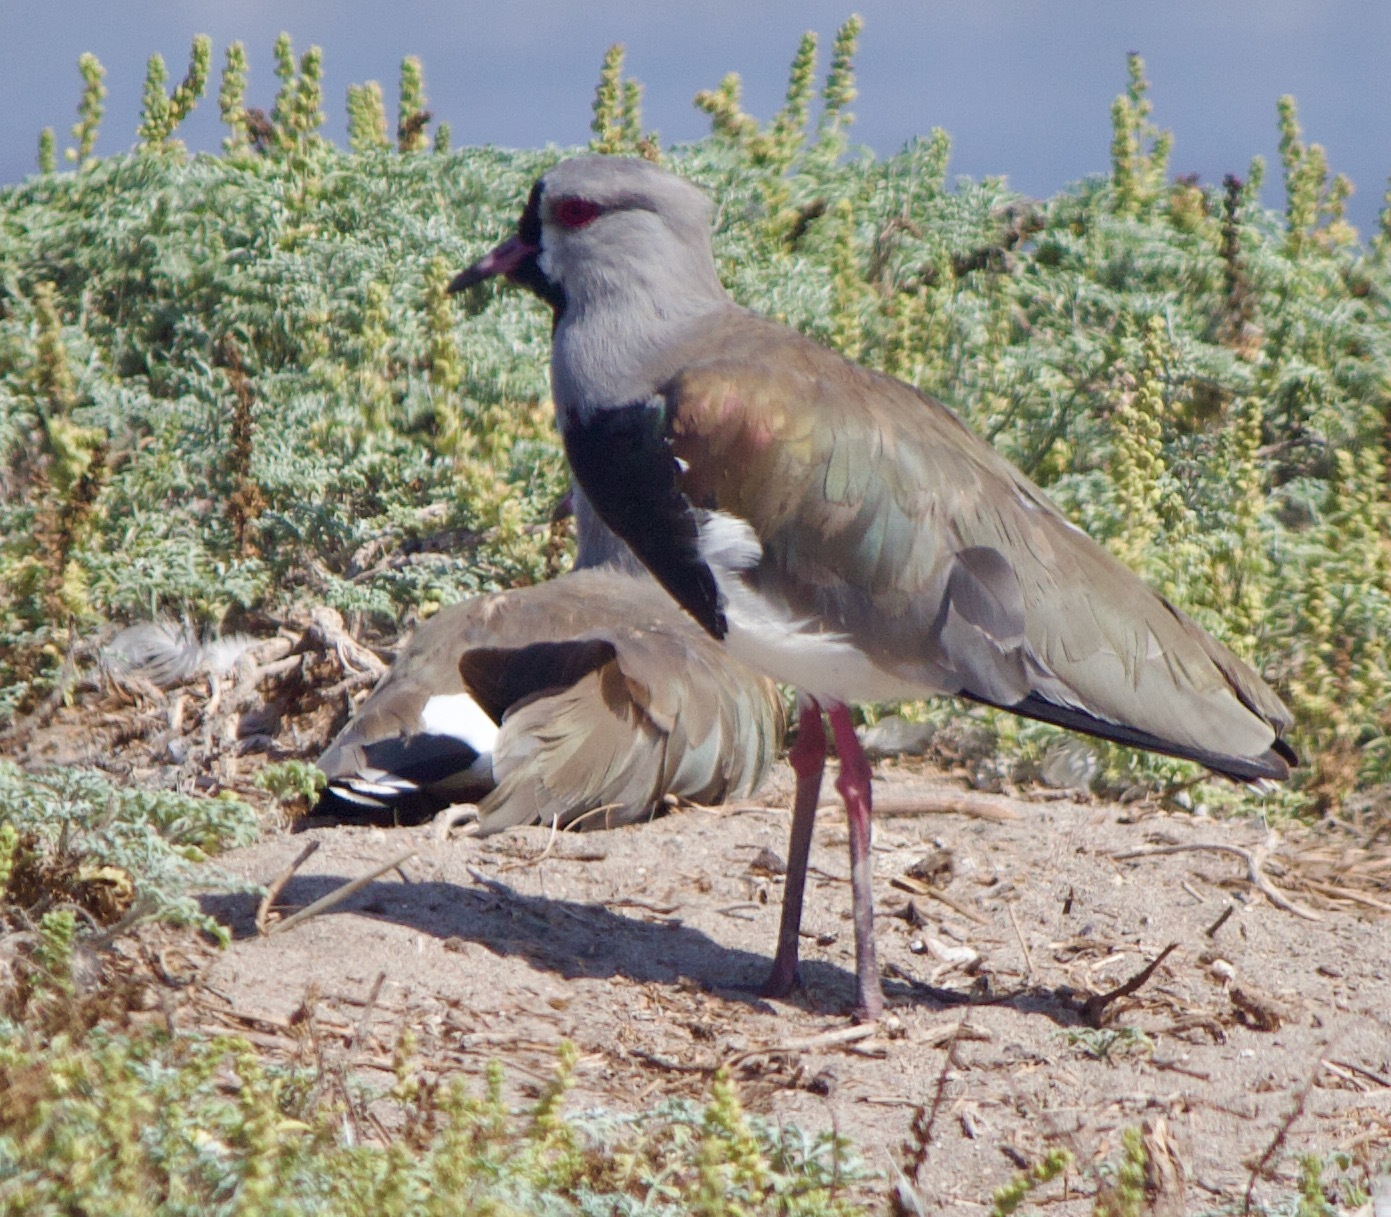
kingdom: Animalia
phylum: Chordata
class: Aves
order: Charadriiformes
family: Charadriidae
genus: Vanellus
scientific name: Vanellus chilensis
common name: Southern lapwing
